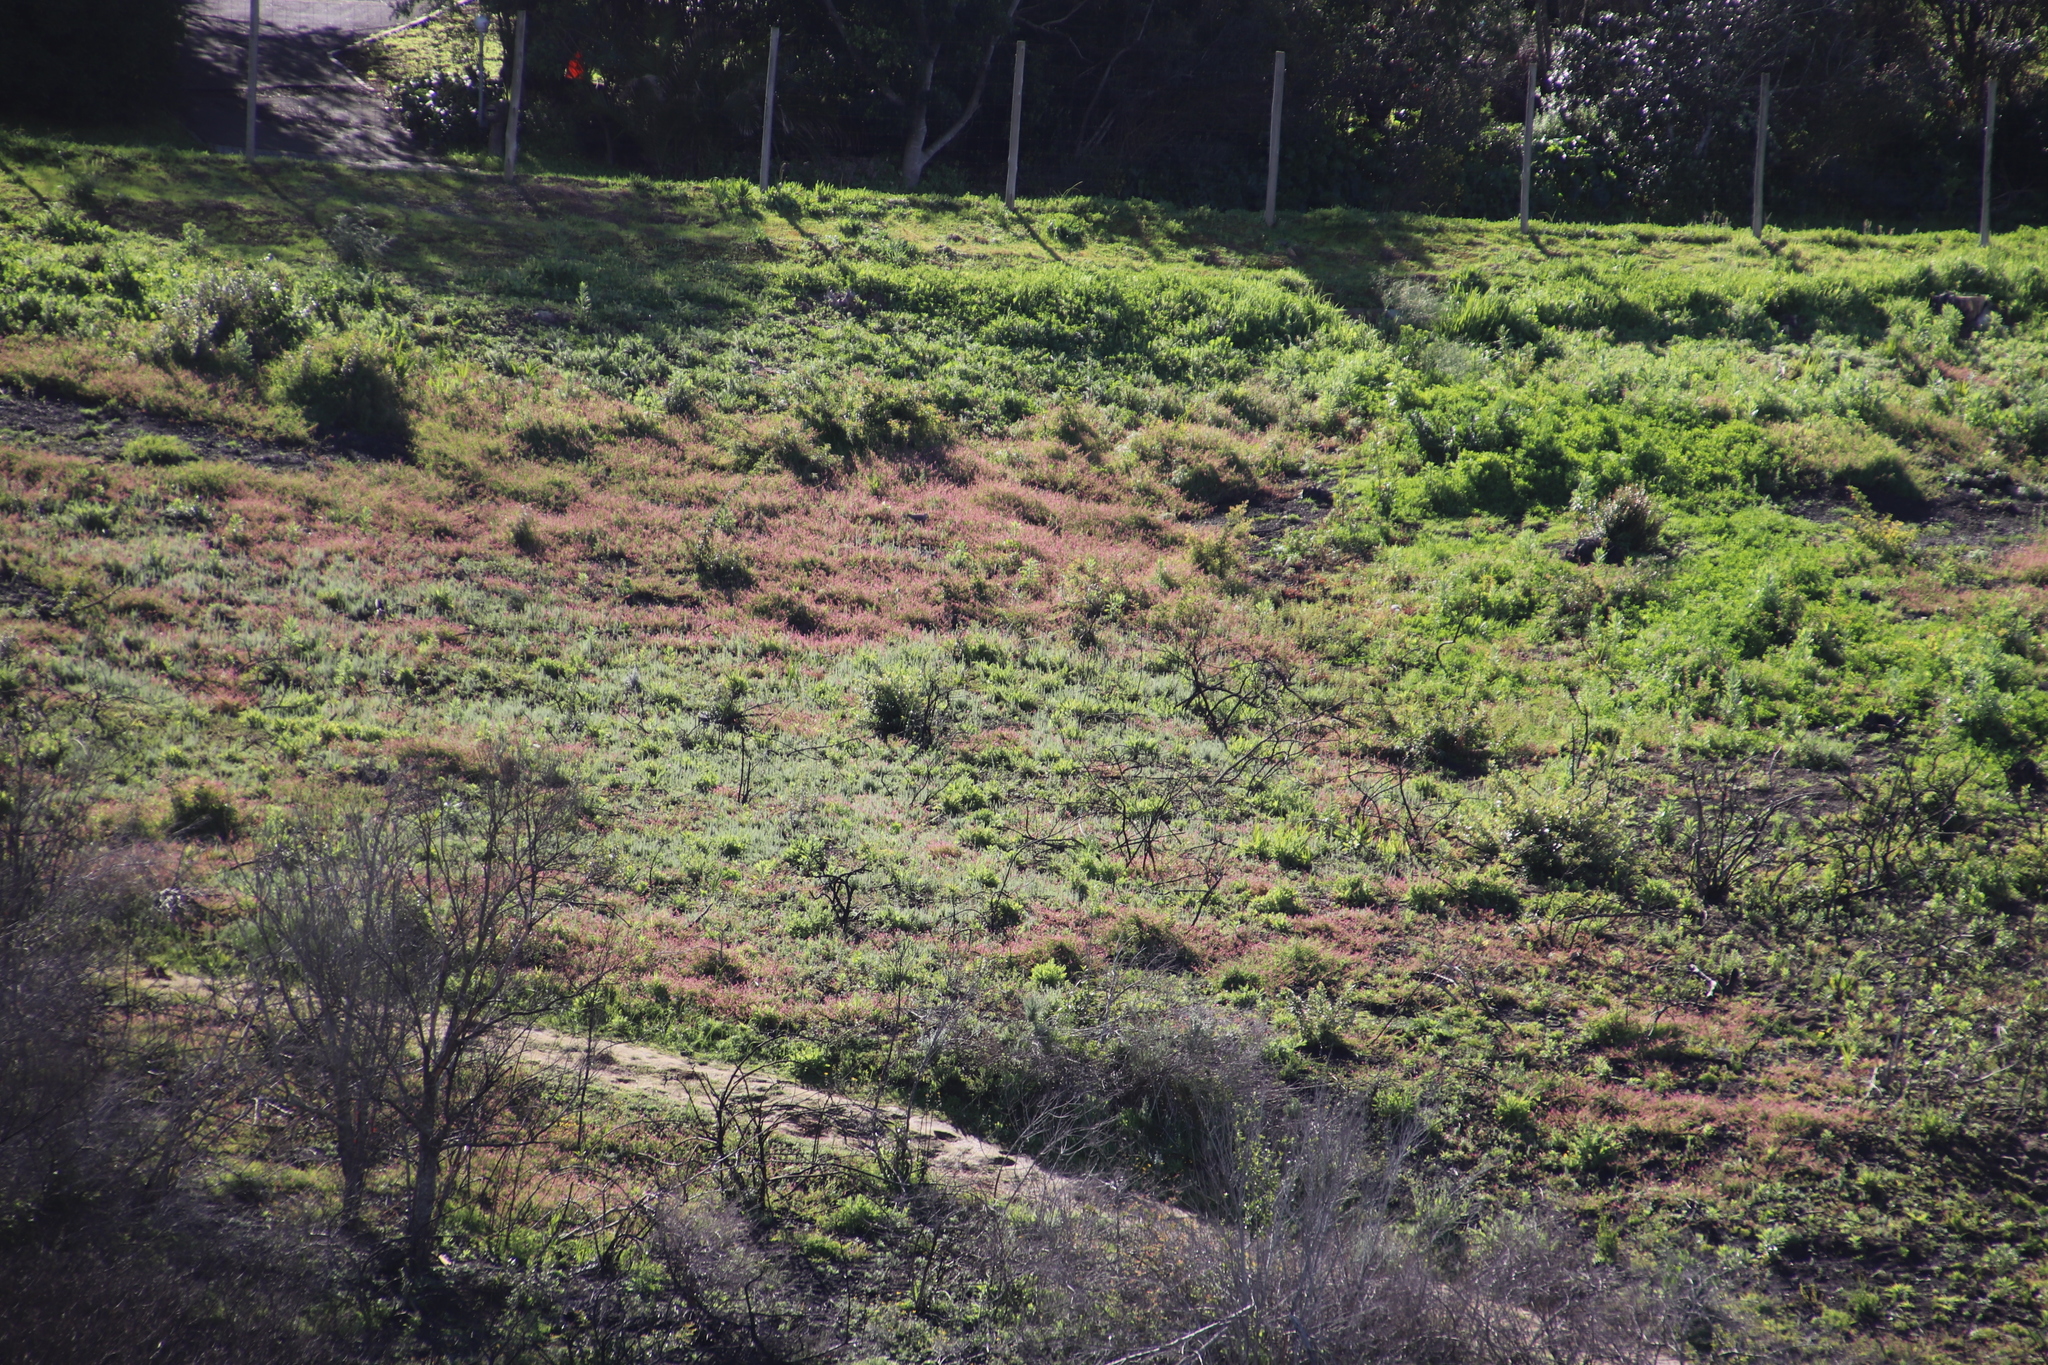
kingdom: Plantae
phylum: Tracheophyta
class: Magnoliopsida
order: Ranunculales
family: Papaveraceae
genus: Fumaria
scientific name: Fumaria muralis
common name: Common ramping-fumitory
